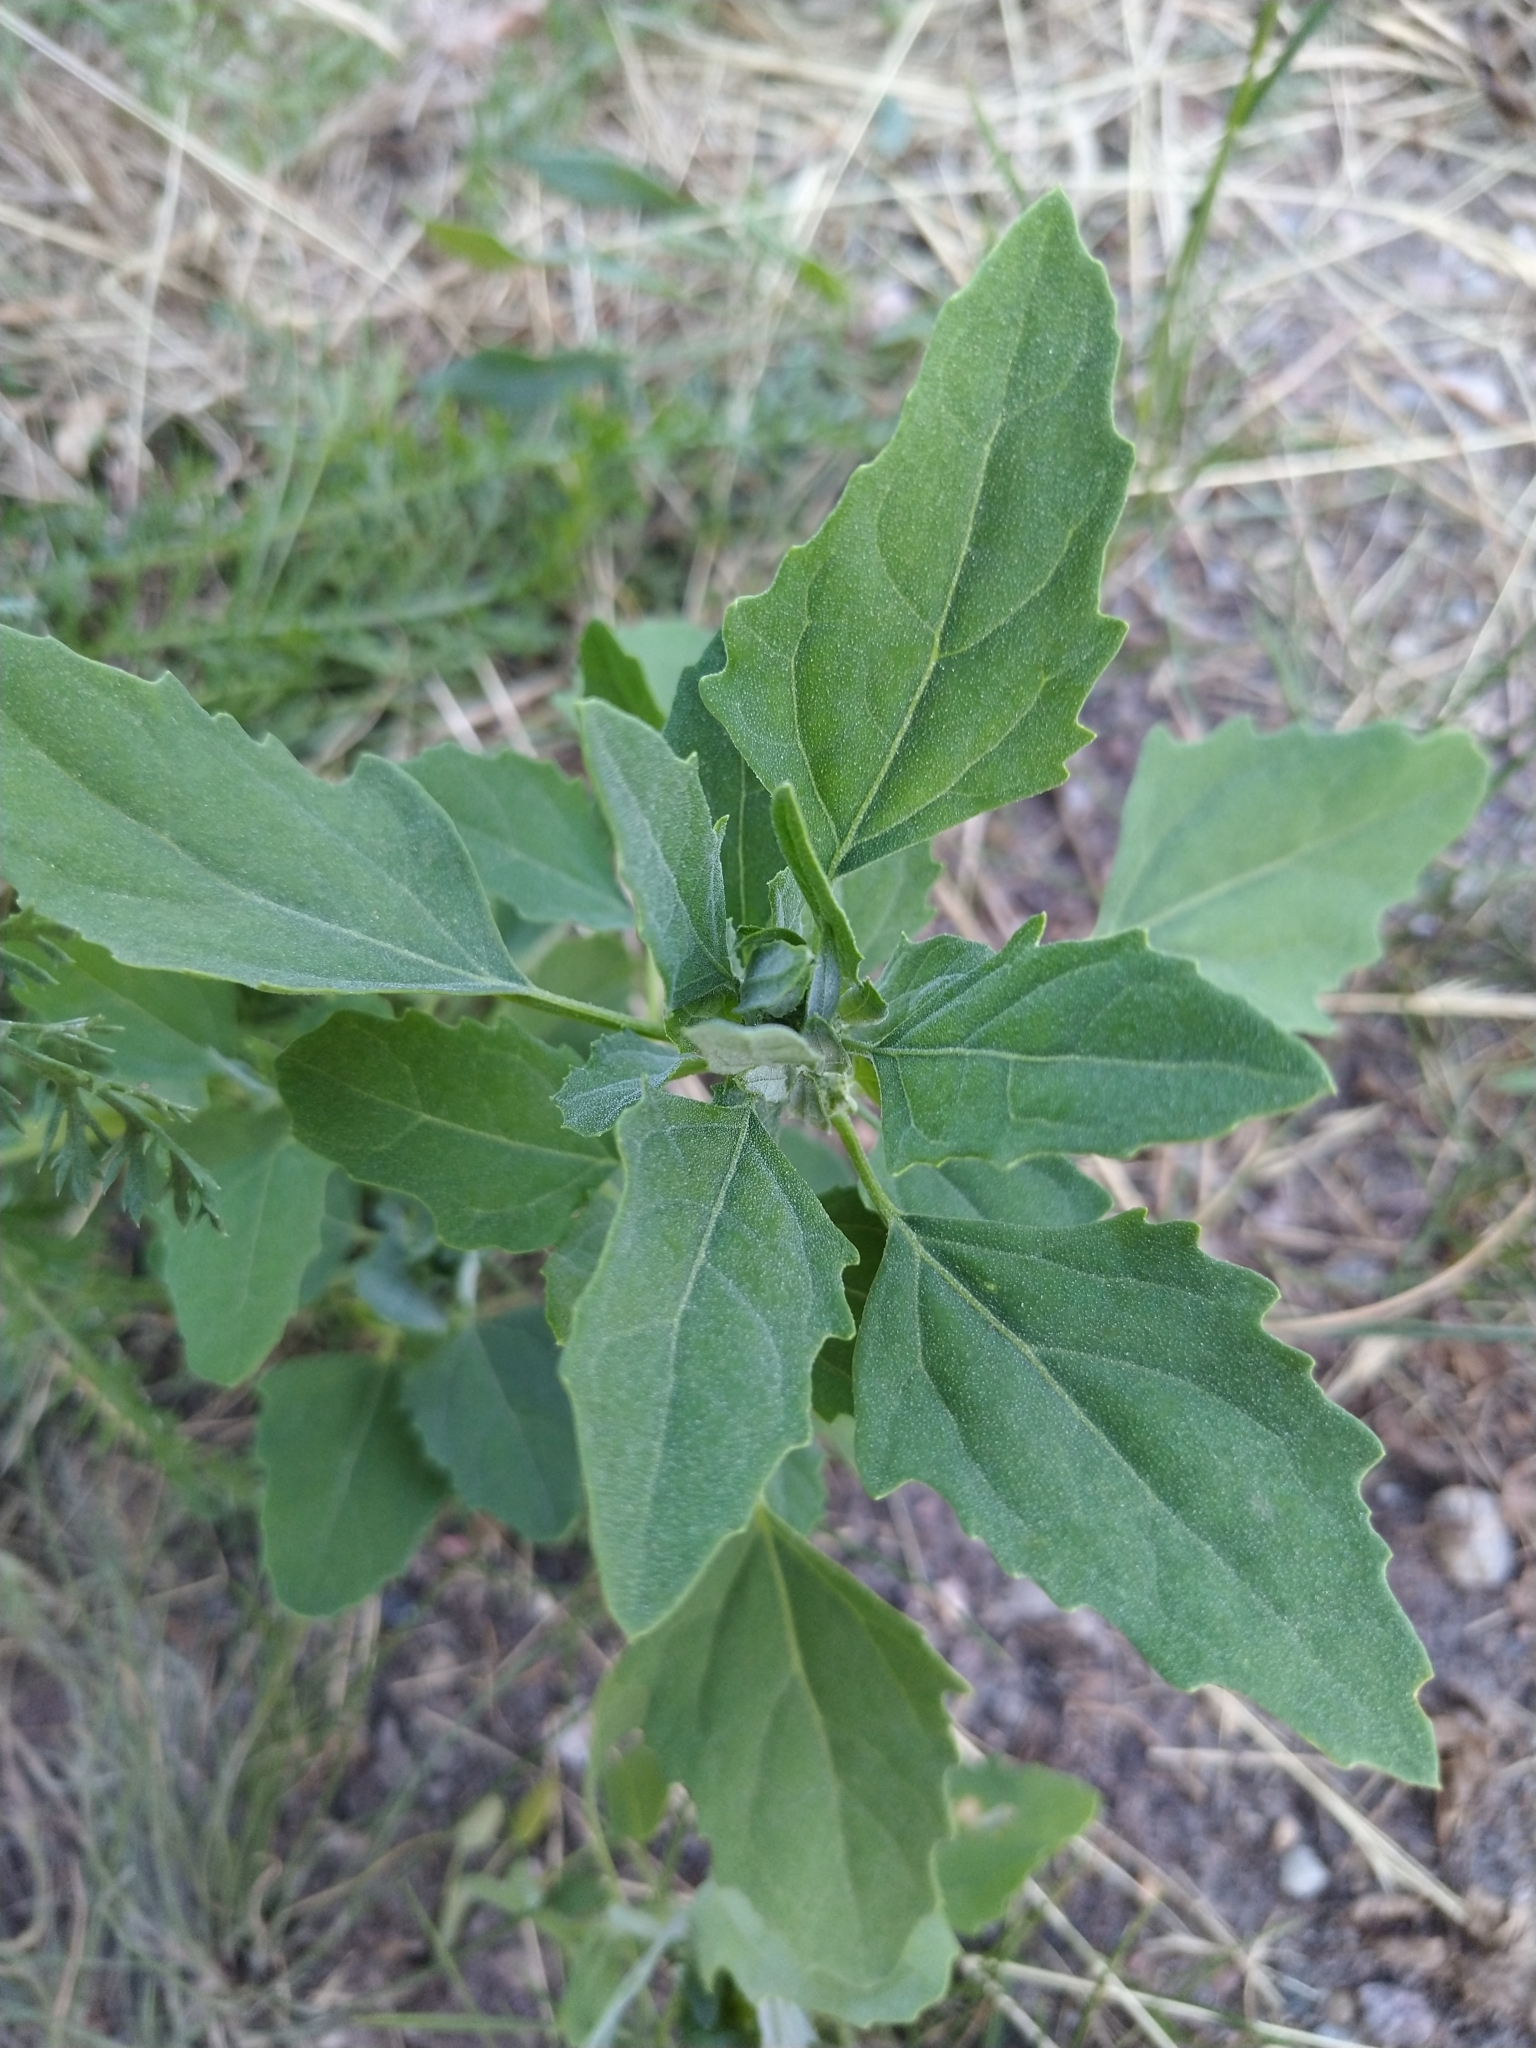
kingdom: Plantae
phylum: Tracheophyta
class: Magnoliopsida
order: Caryophyllales
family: Amaranthaceae
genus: Chenopodium
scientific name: Chenopodium album
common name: Fat-hen
